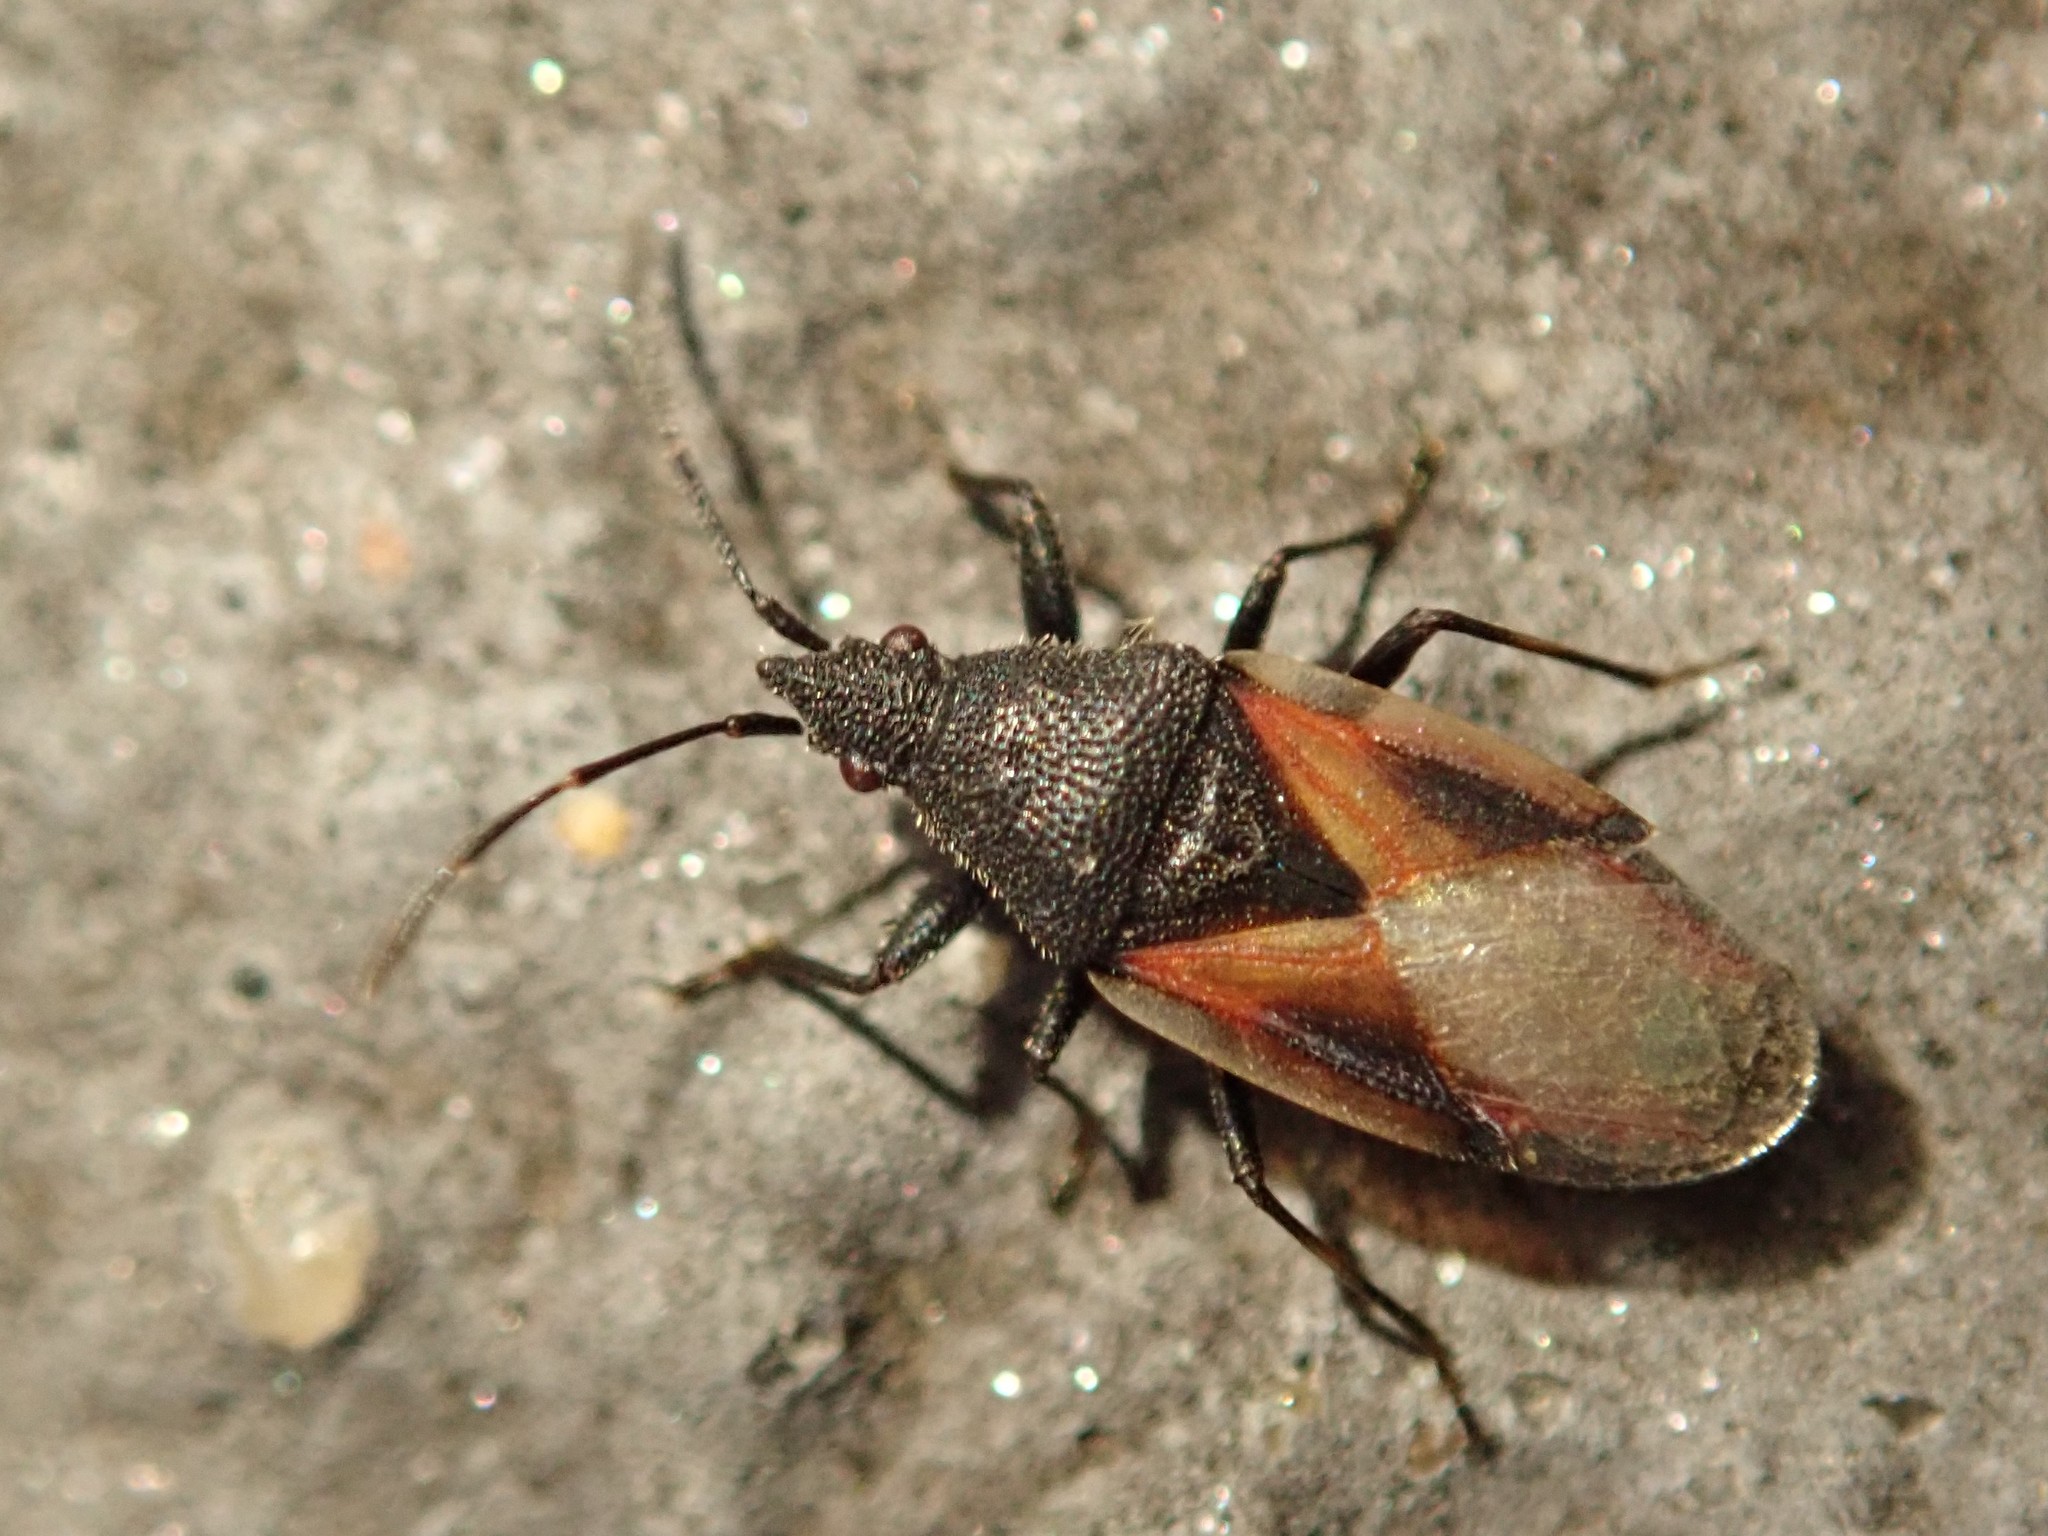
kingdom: Animalia
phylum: Arthropoda
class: Insecta
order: Hemiptera
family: Oxycarenidae
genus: Oxycarenus
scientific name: Oxycarenus lavaterae
